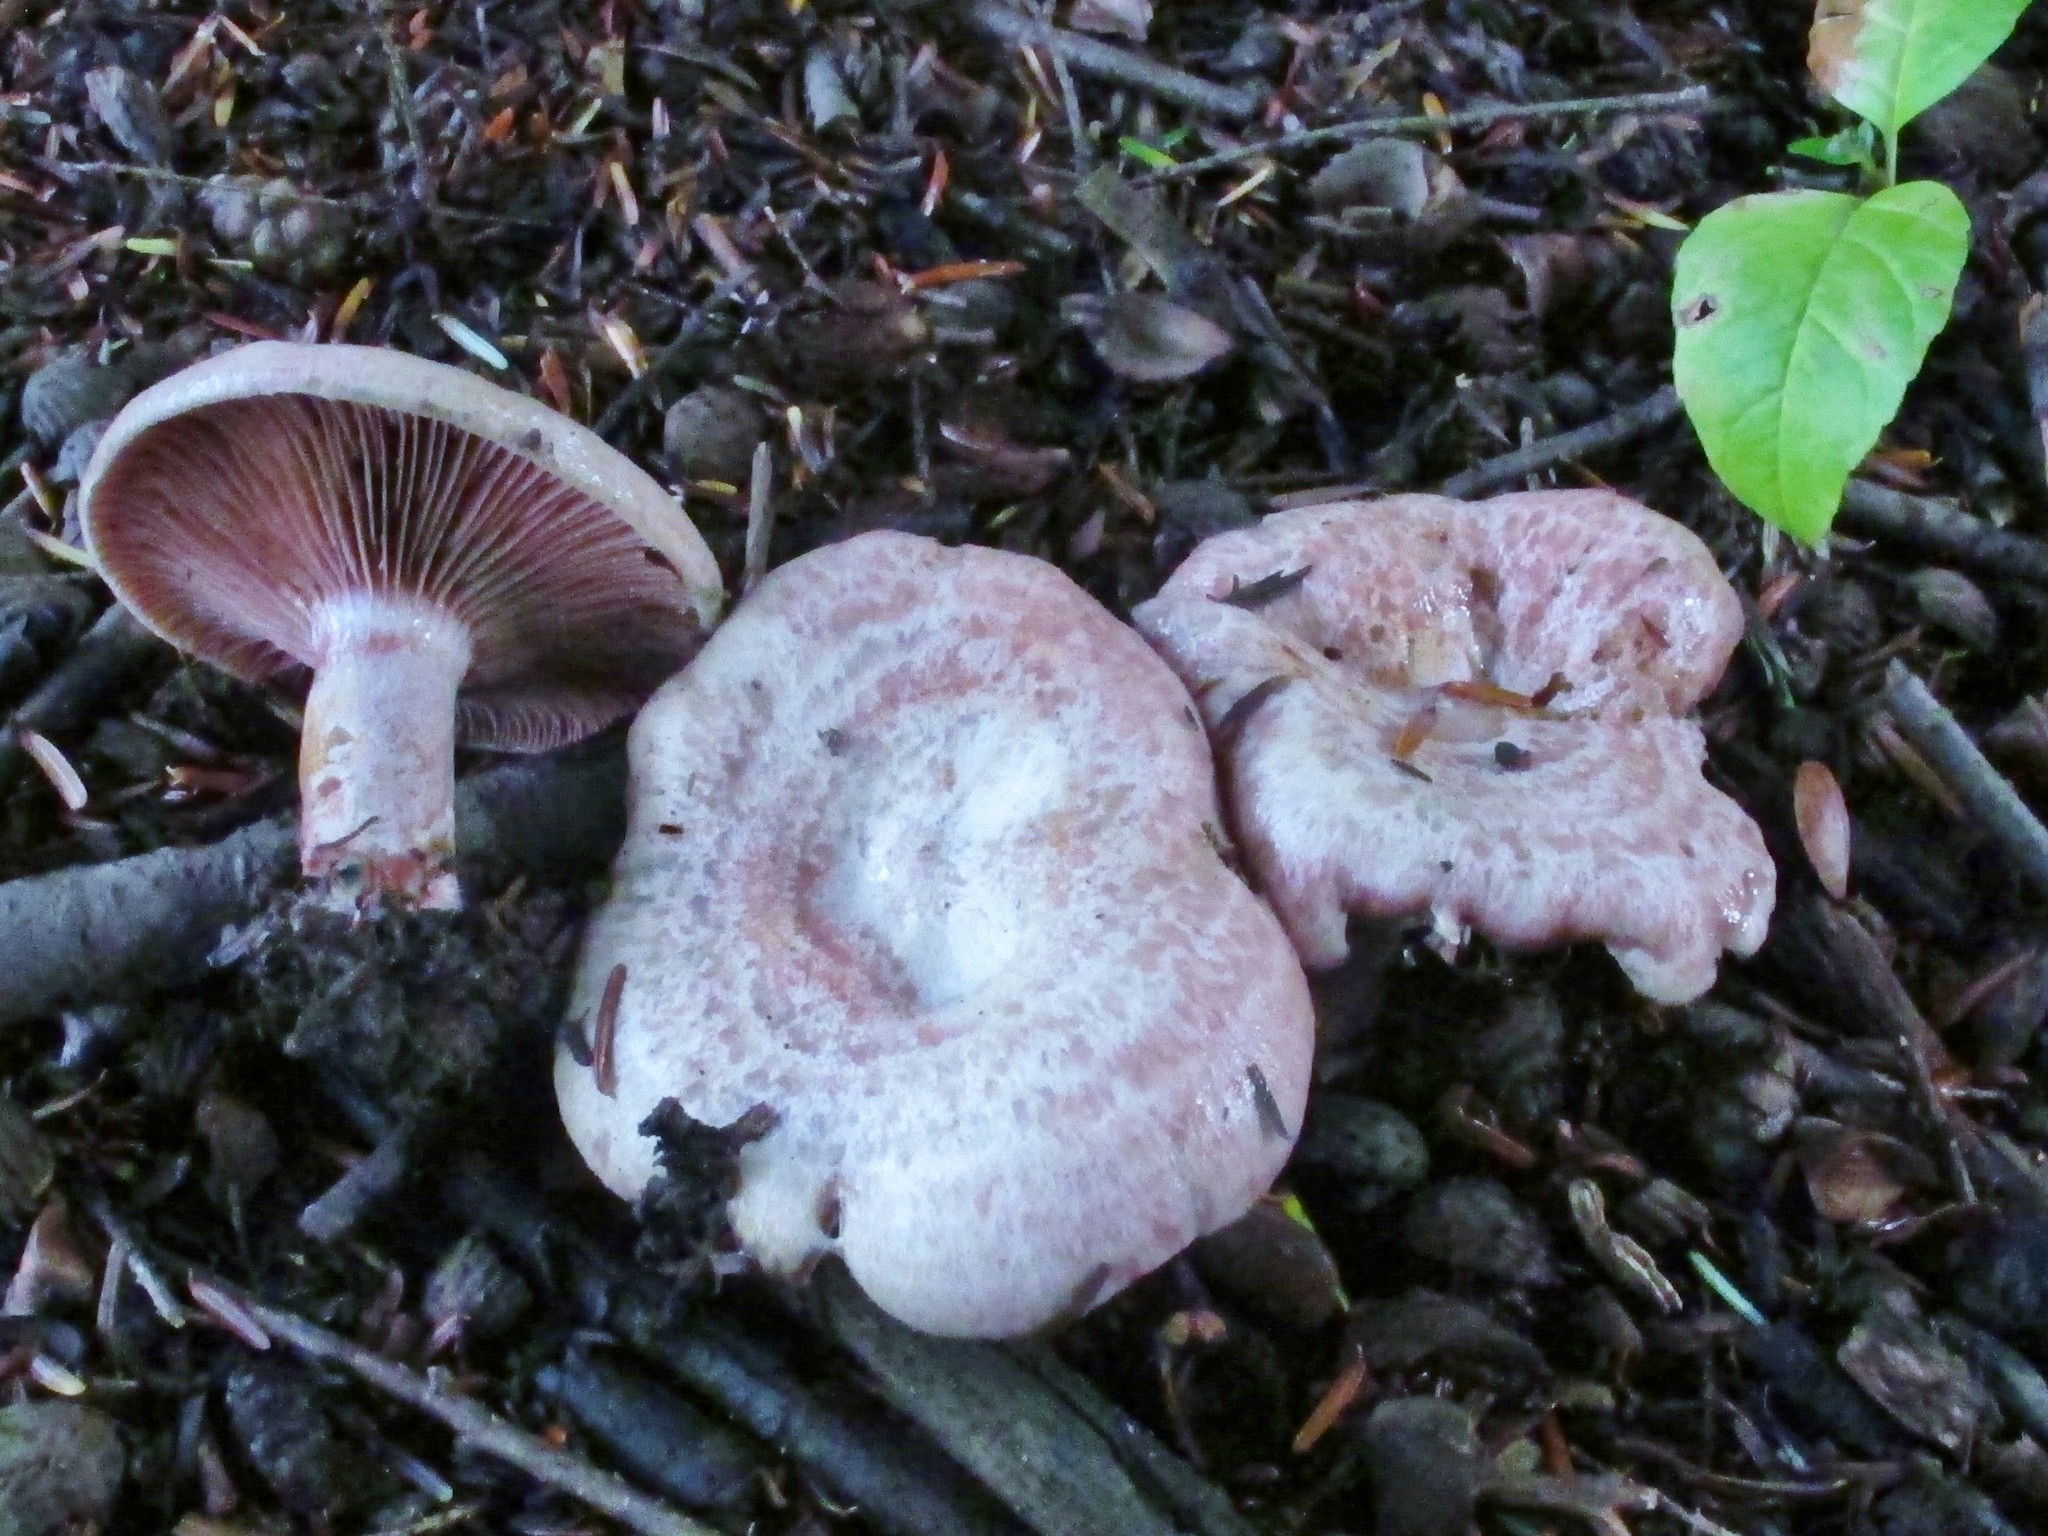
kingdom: Fungi
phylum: Basidiomycota
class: Agaricomycetes
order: Russulales
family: Russulaceae
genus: Lactarius
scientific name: Lactarius subpurpureus
